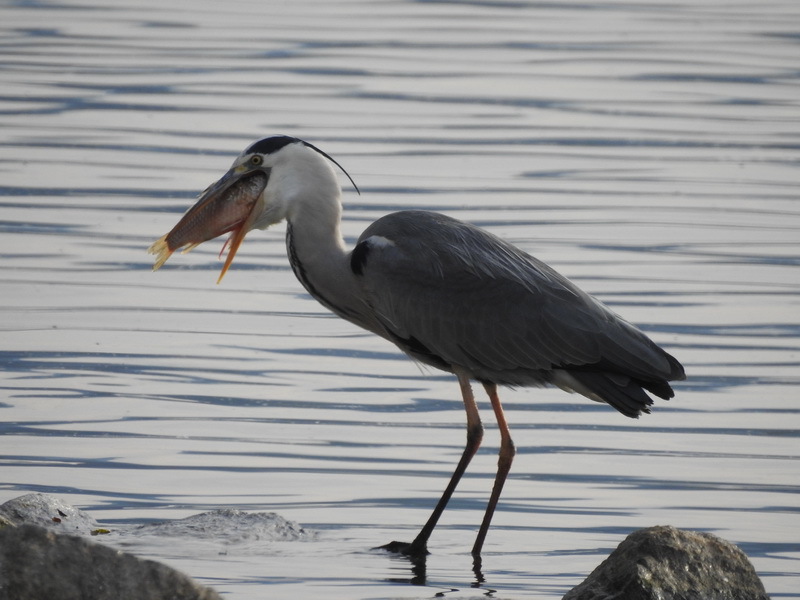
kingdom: Animalia
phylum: Chordata
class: Aves
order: Pelecaniformes
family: Ardeidae
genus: Ardea
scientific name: Ardea cinerea
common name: Grey heron
